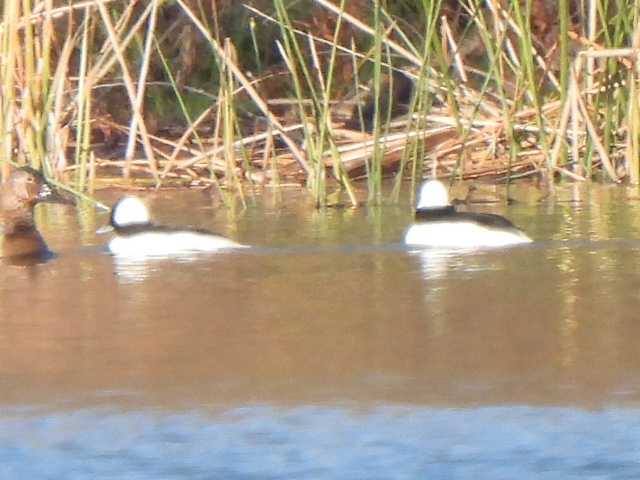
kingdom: Animalia
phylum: Chordata
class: Aves
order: Anseriformes
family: Anatidae
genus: Bucephala
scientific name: Bucephala albeola
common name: Bufflehead
